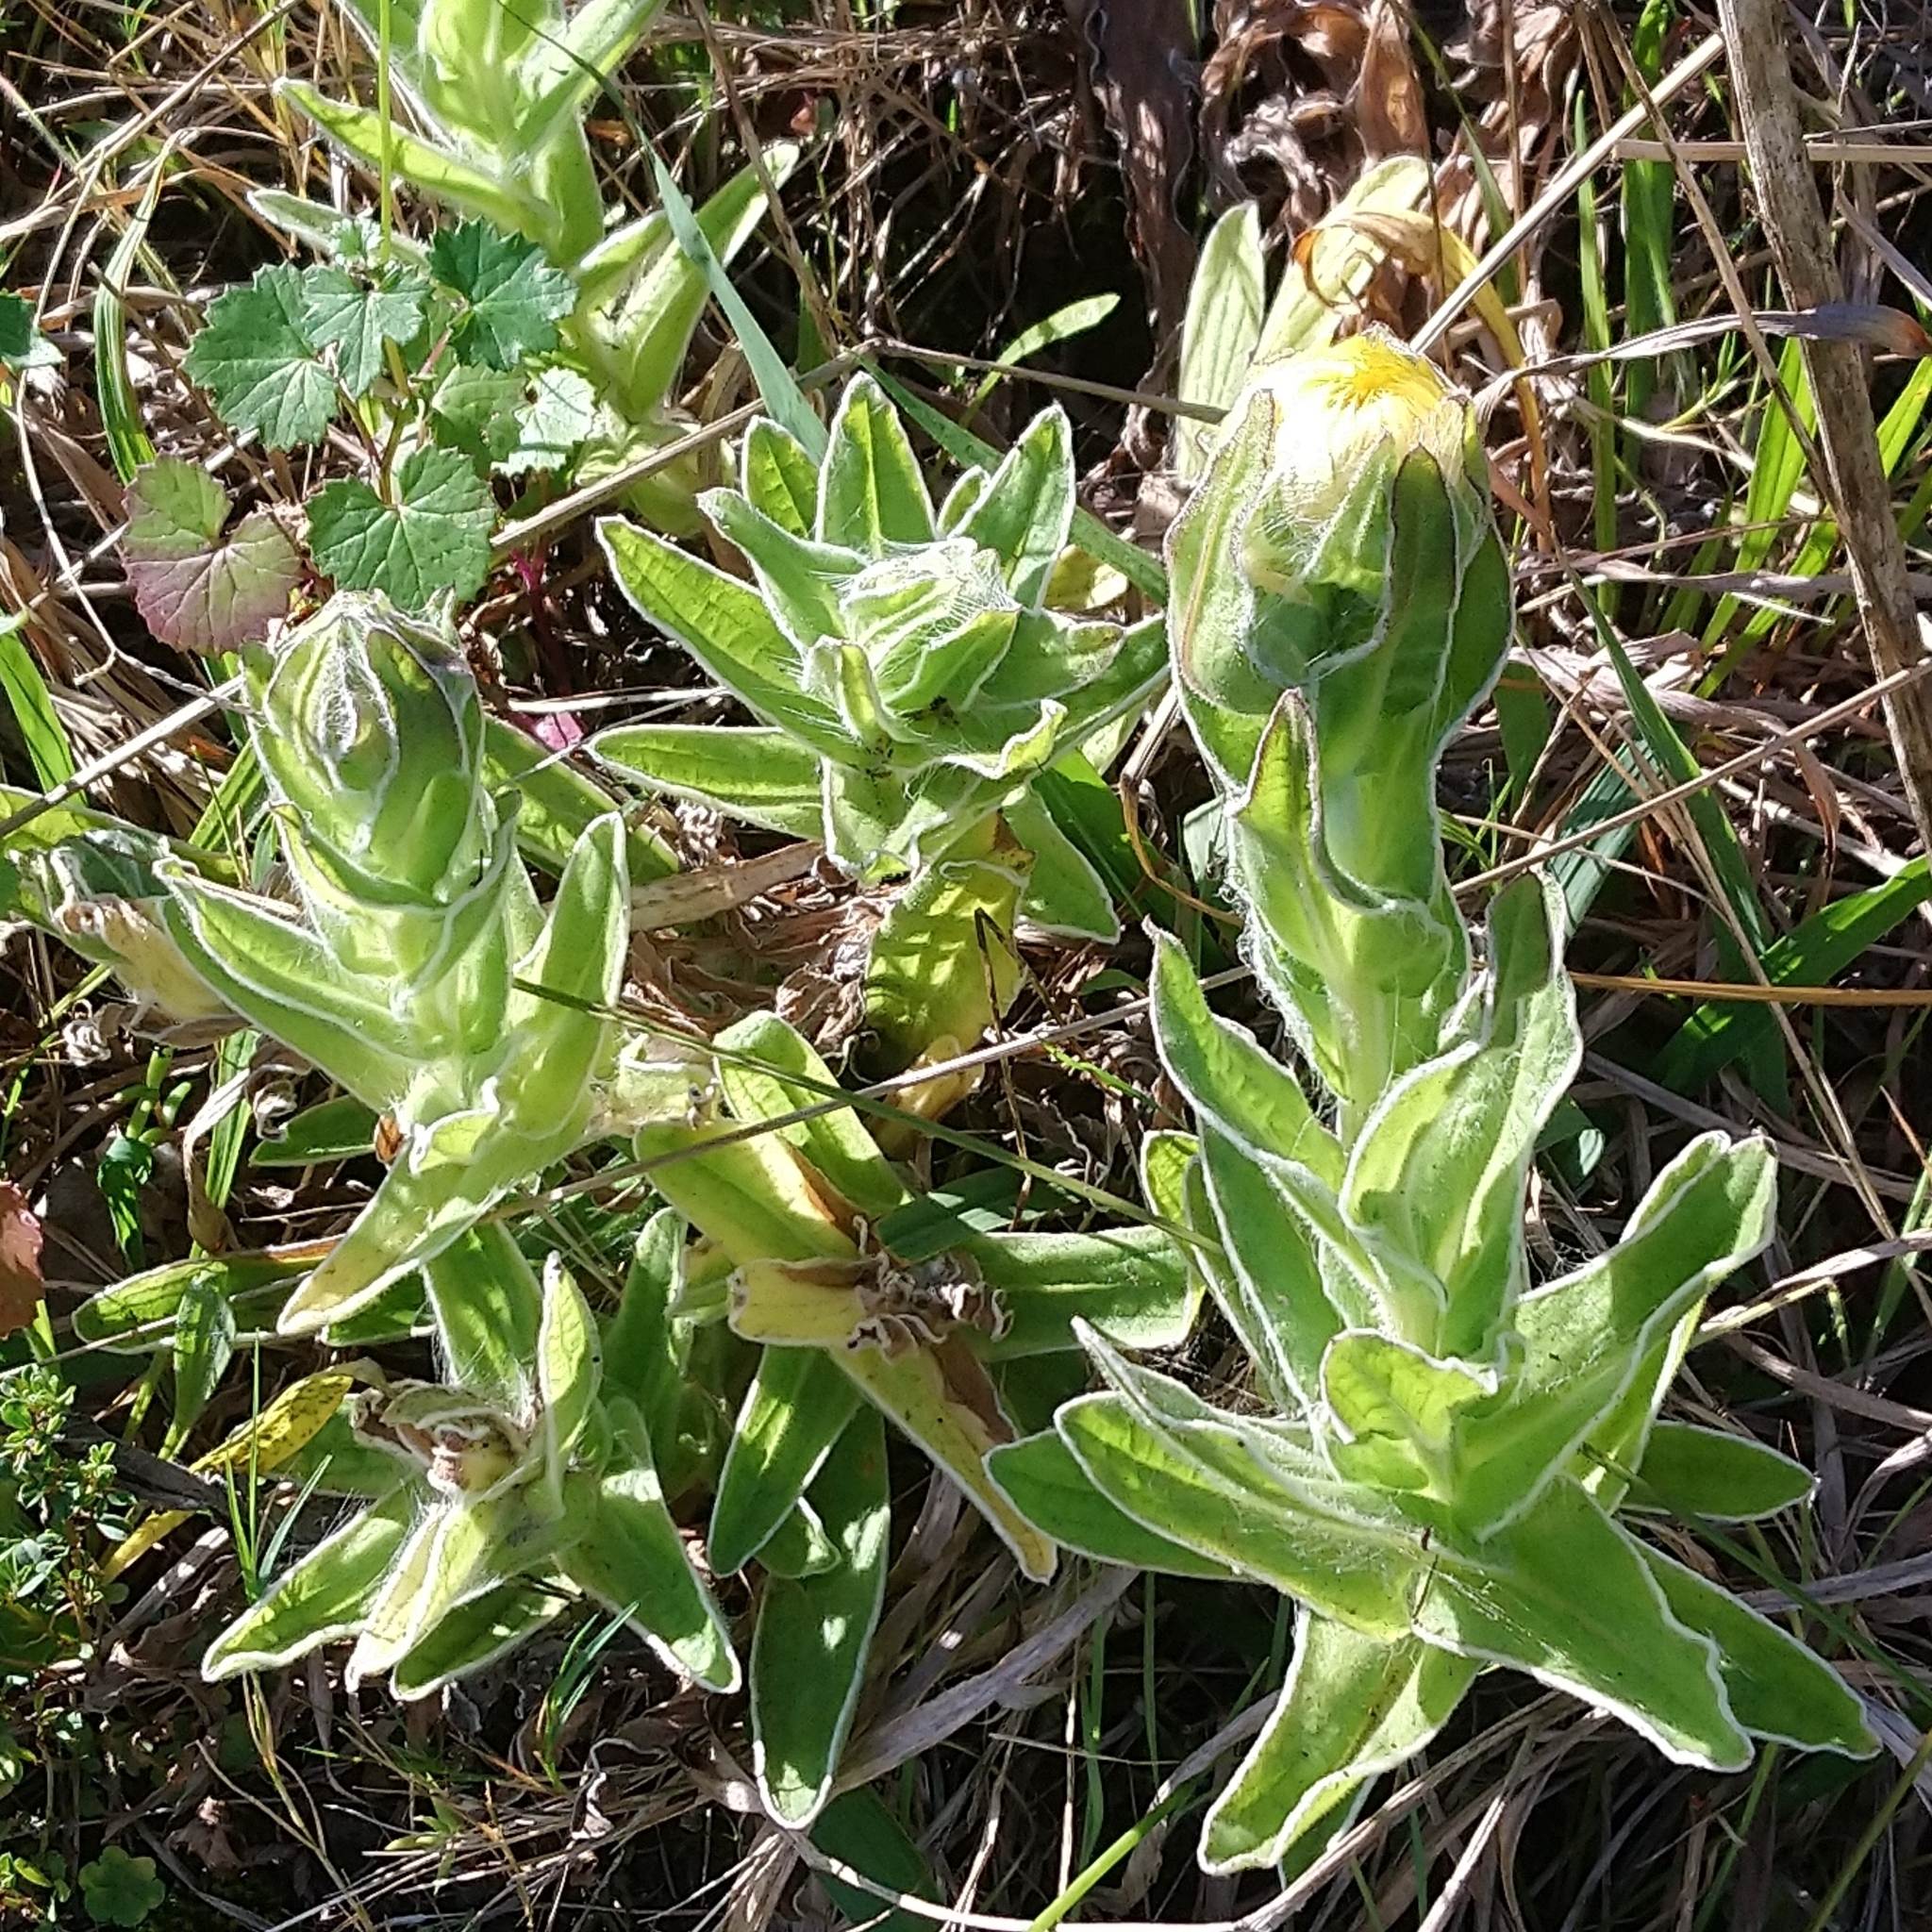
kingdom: Plantae
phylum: Tracheophyta
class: Magnoliopsida
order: Asterales
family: Asteraceae
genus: Helichrysum
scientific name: Helichrysum aureum
